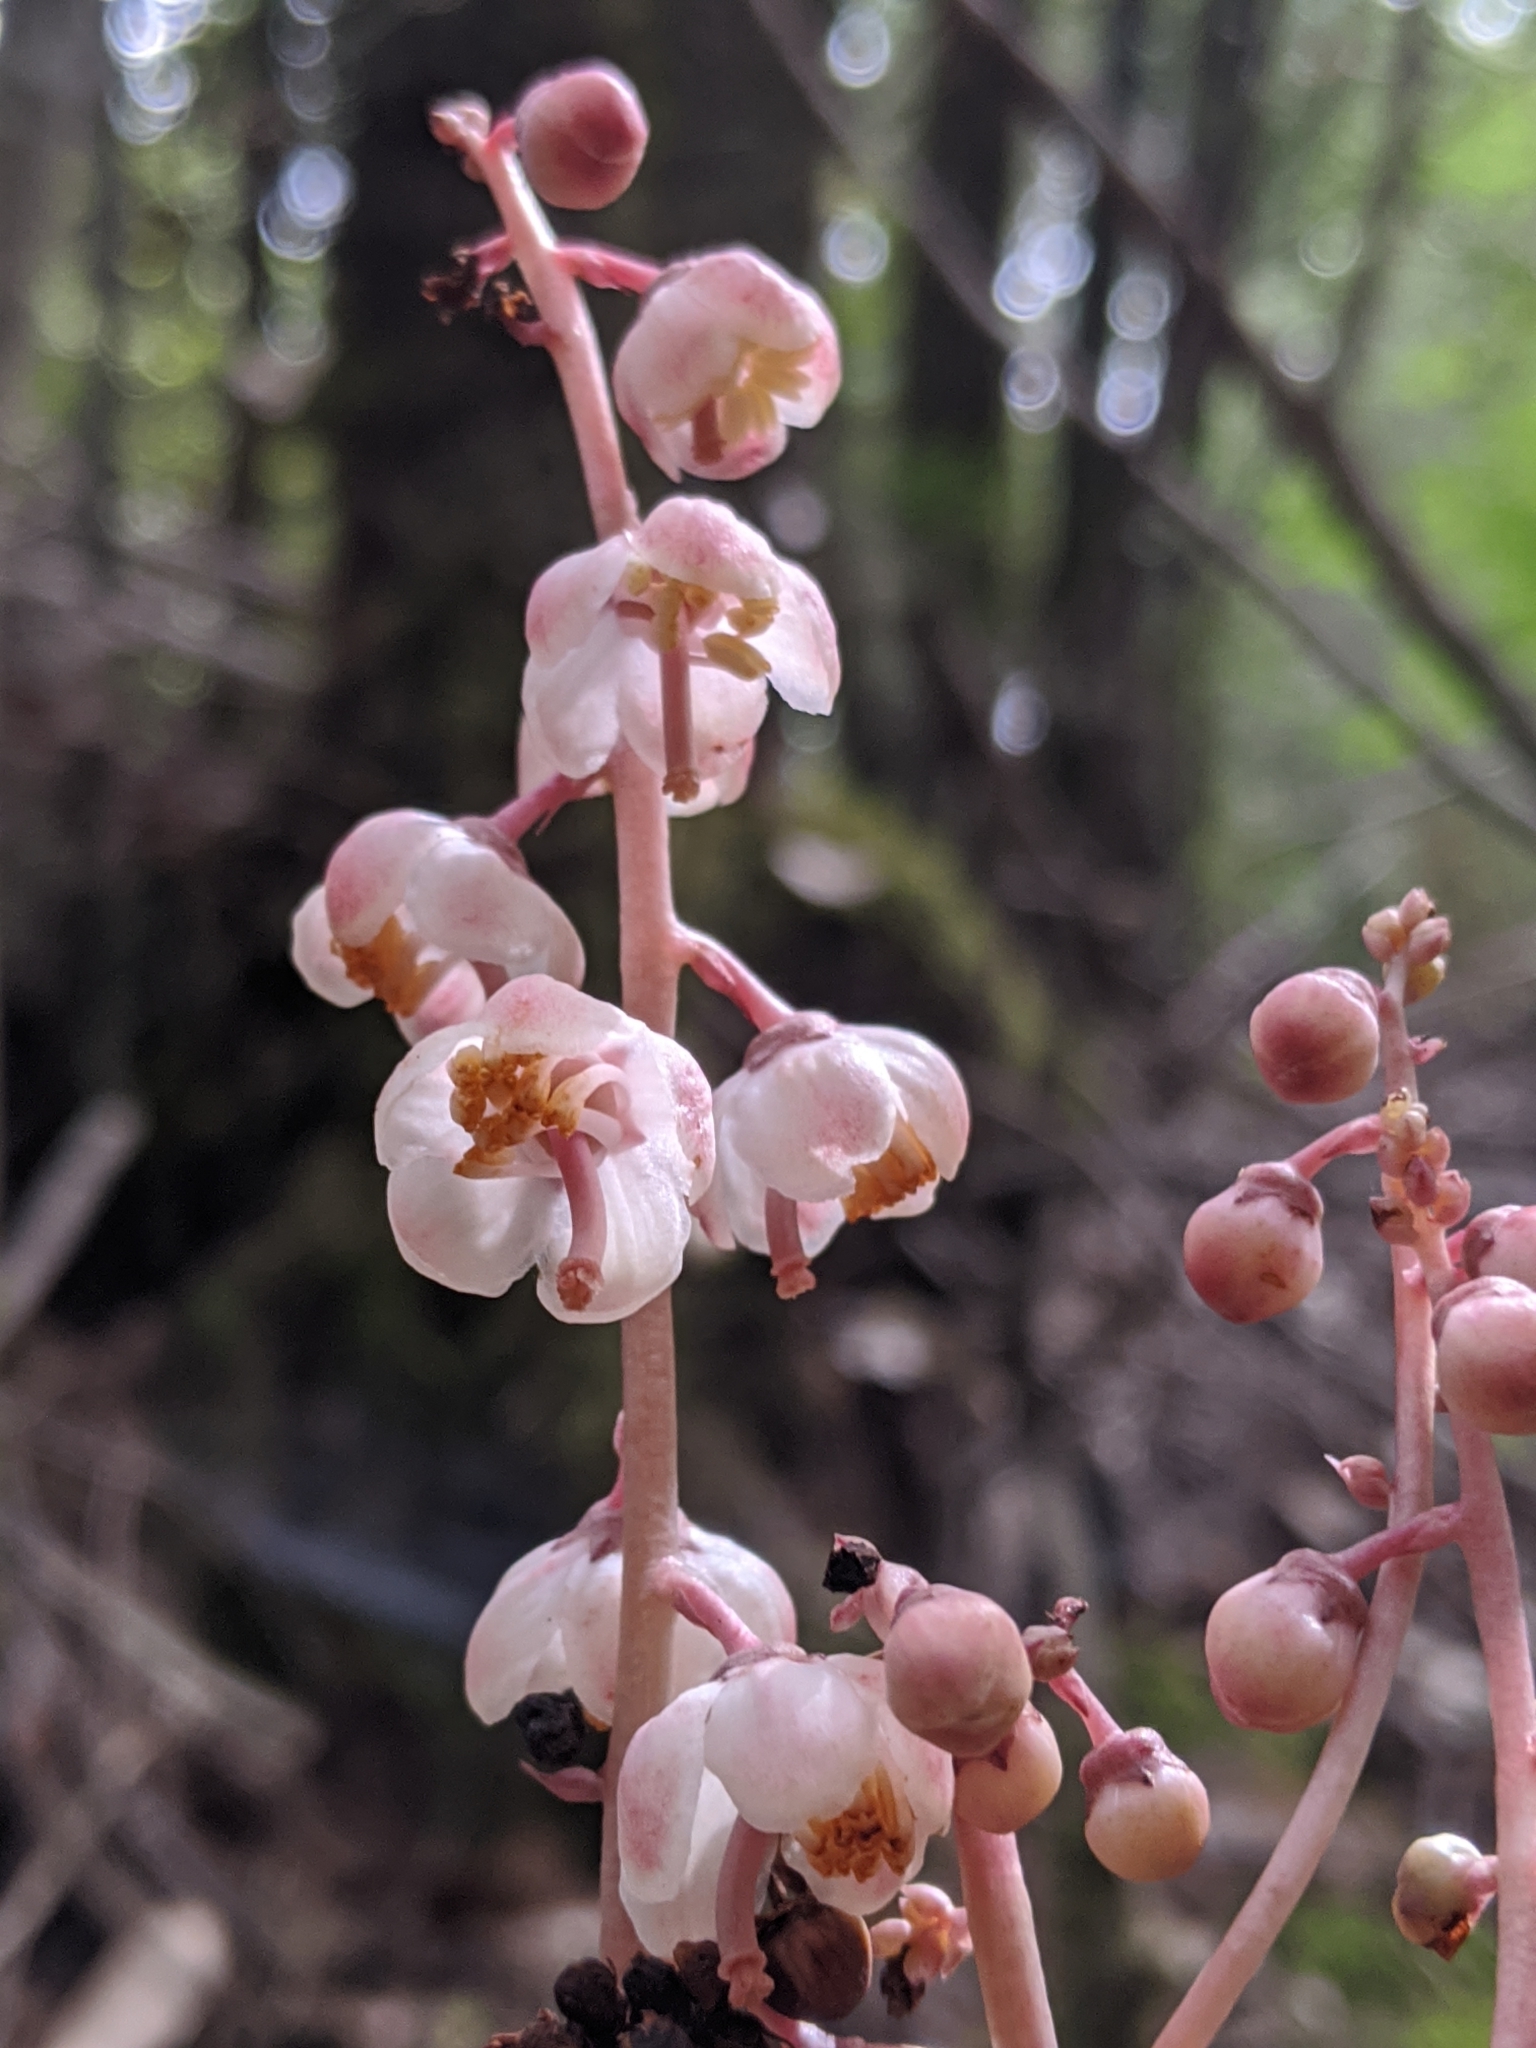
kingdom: Plantae
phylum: Tracheophyta
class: Magnoliopsida
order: Ericales
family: Ericaceae
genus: Pyrola
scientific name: Pyrola aphylla
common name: Leafless wintergreen
